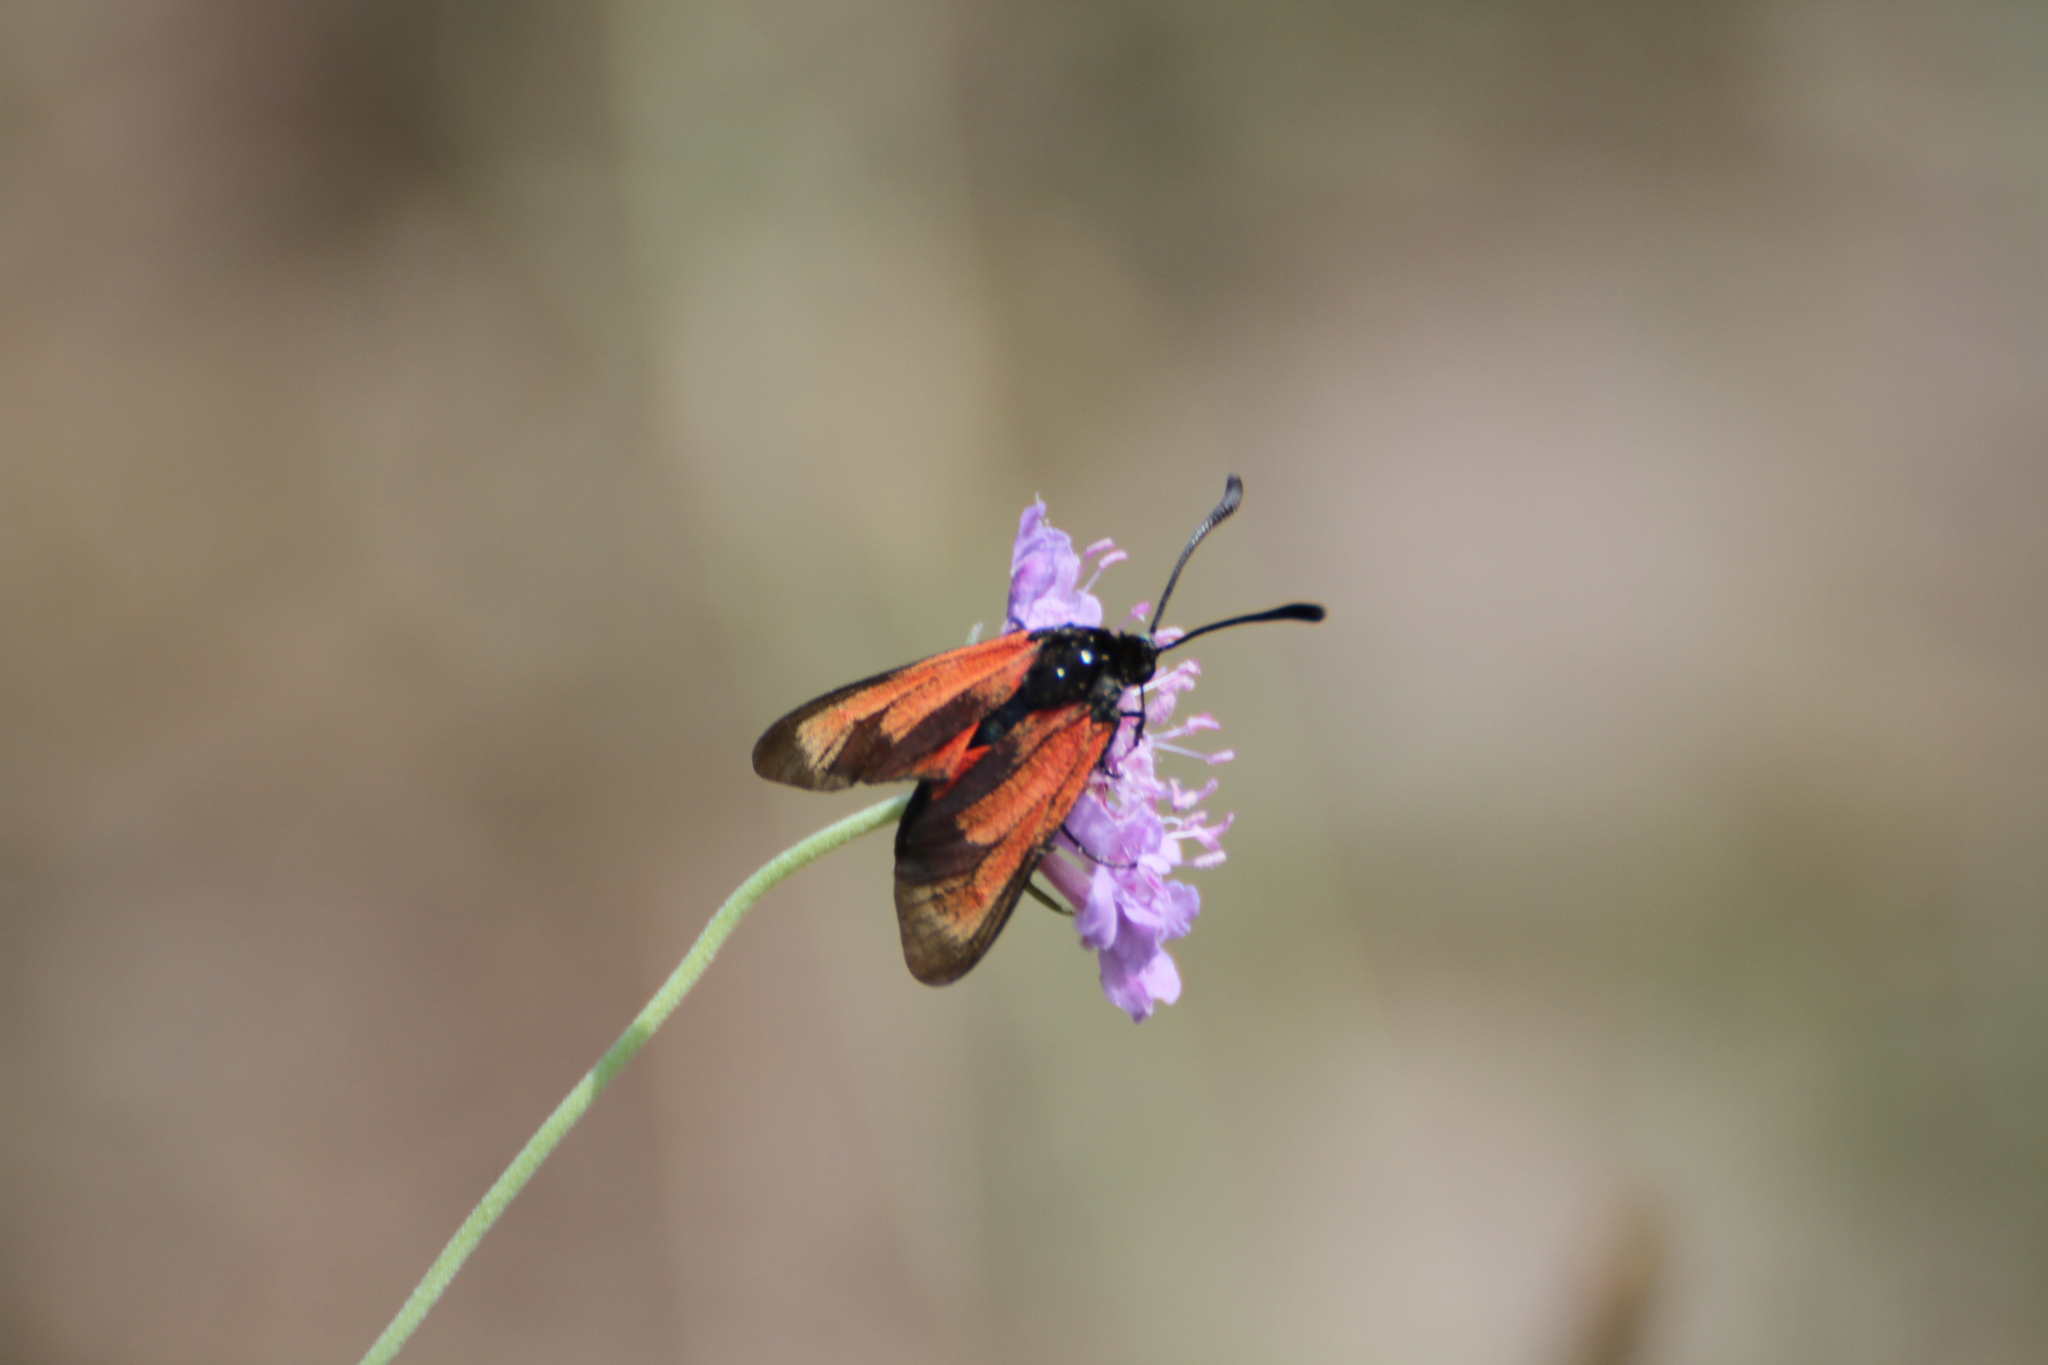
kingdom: Animalia
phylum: Arthropoda
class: Insecta
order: Lepidoptera
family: Zygaenidae
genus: Zygaena
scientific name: Zygaena erythrus
